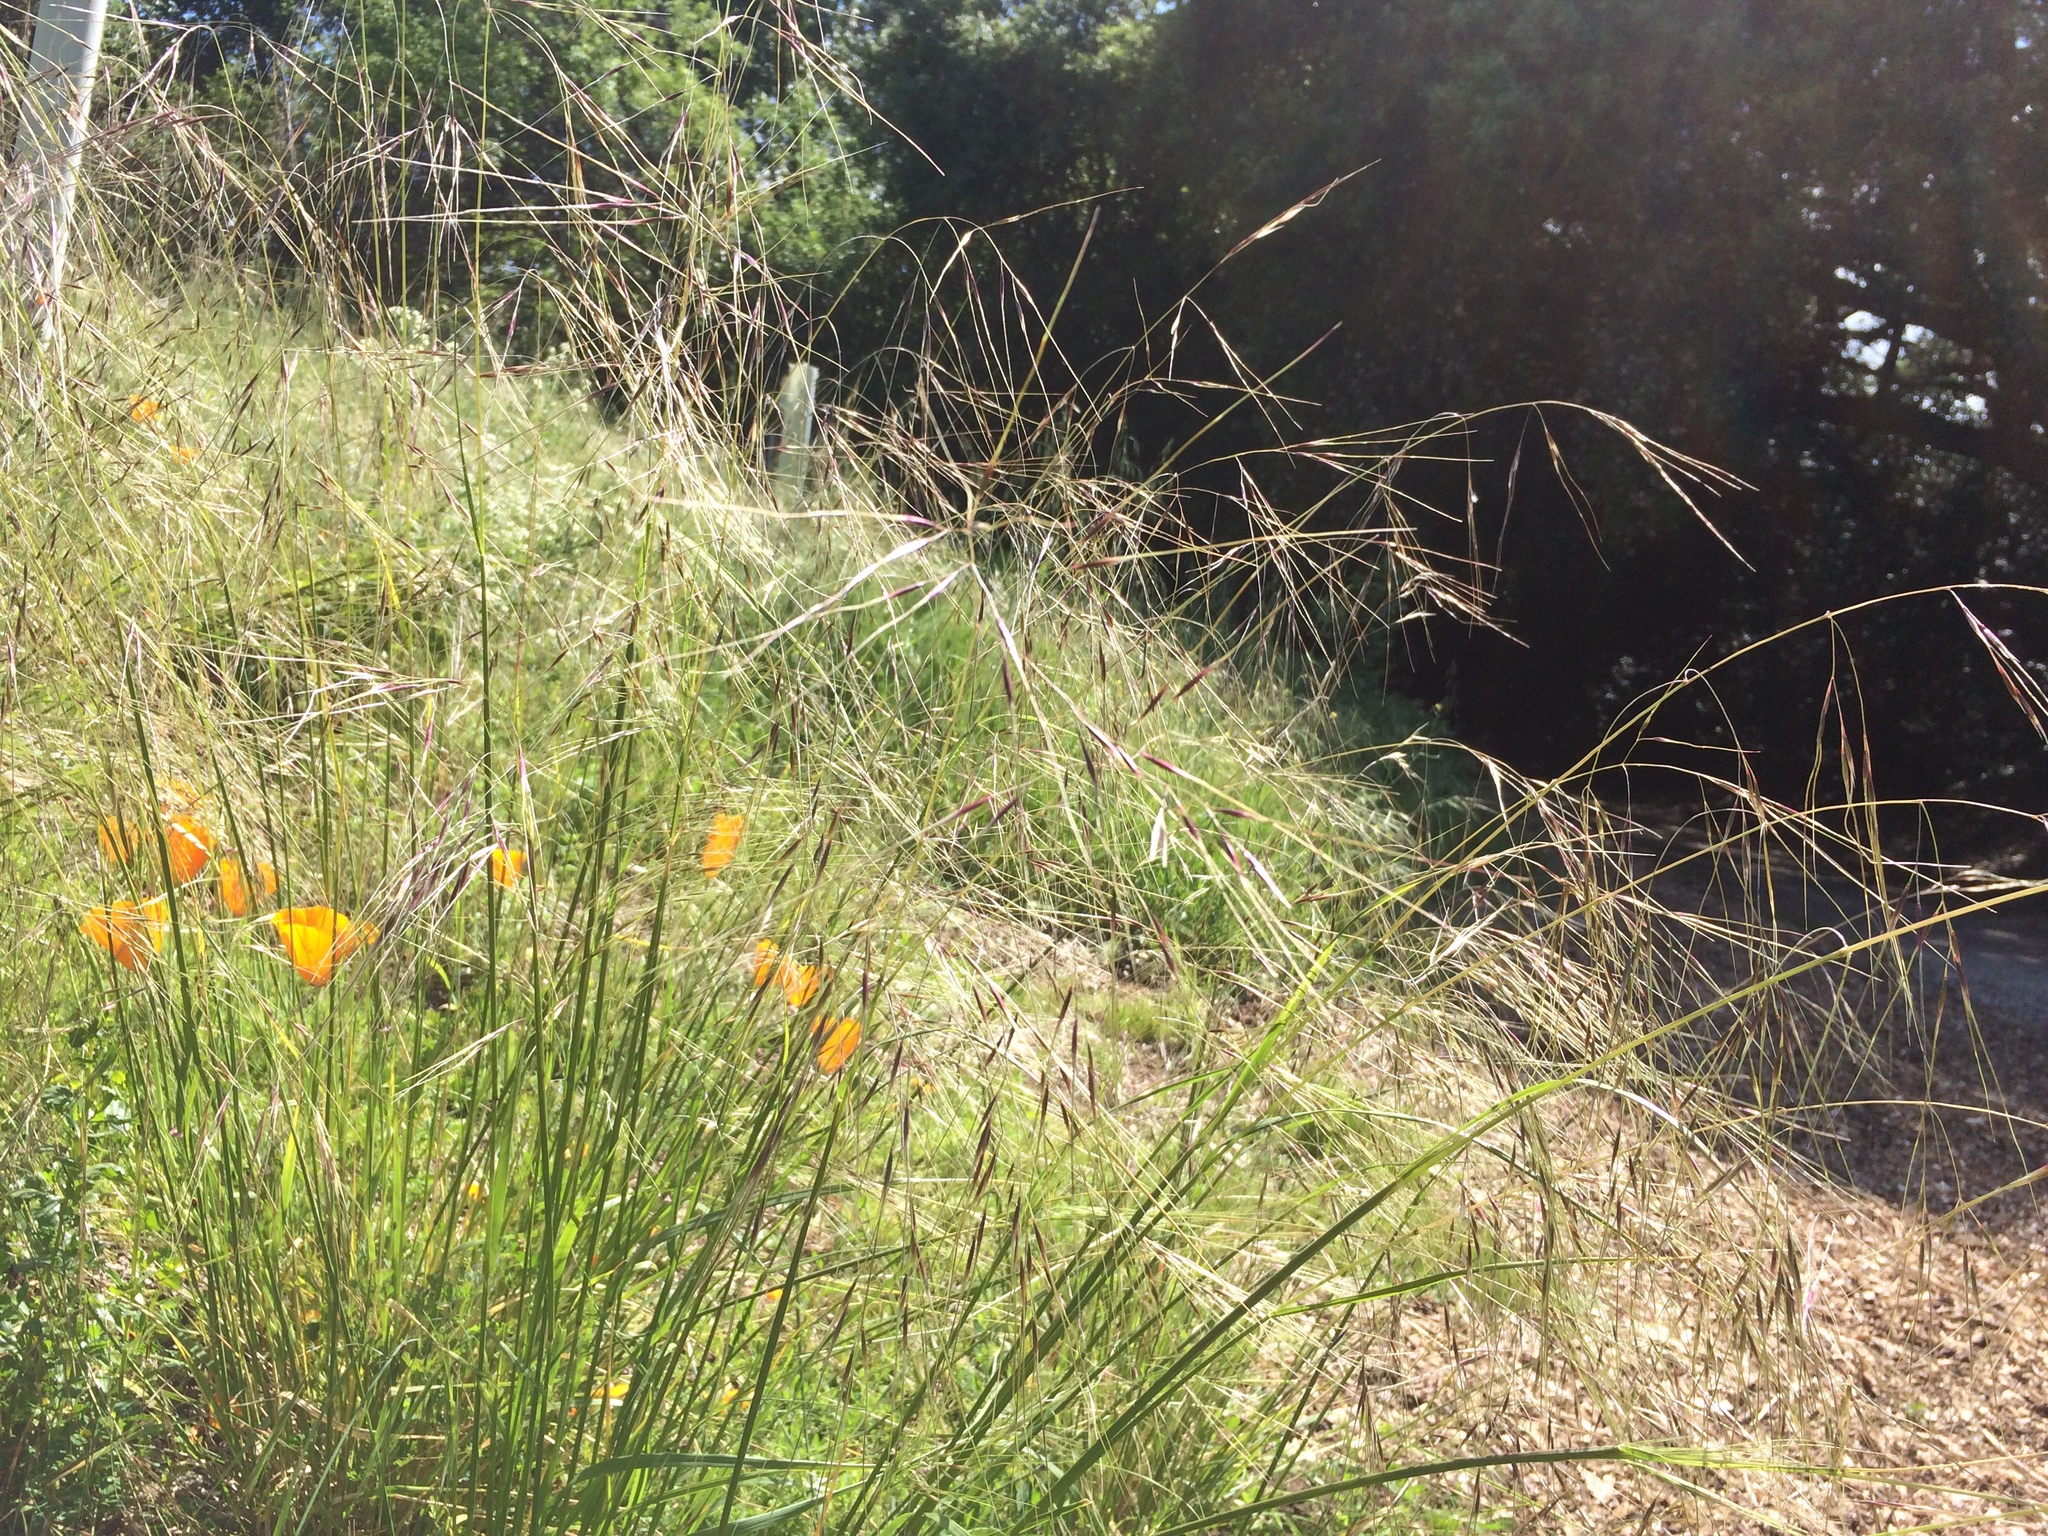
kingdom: Plantae
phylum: Tracheophyta
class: Liliopsida
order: Poales
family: Poaceae
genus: Nassella
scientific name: Nassella pulchra
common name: Purple needlegrass
